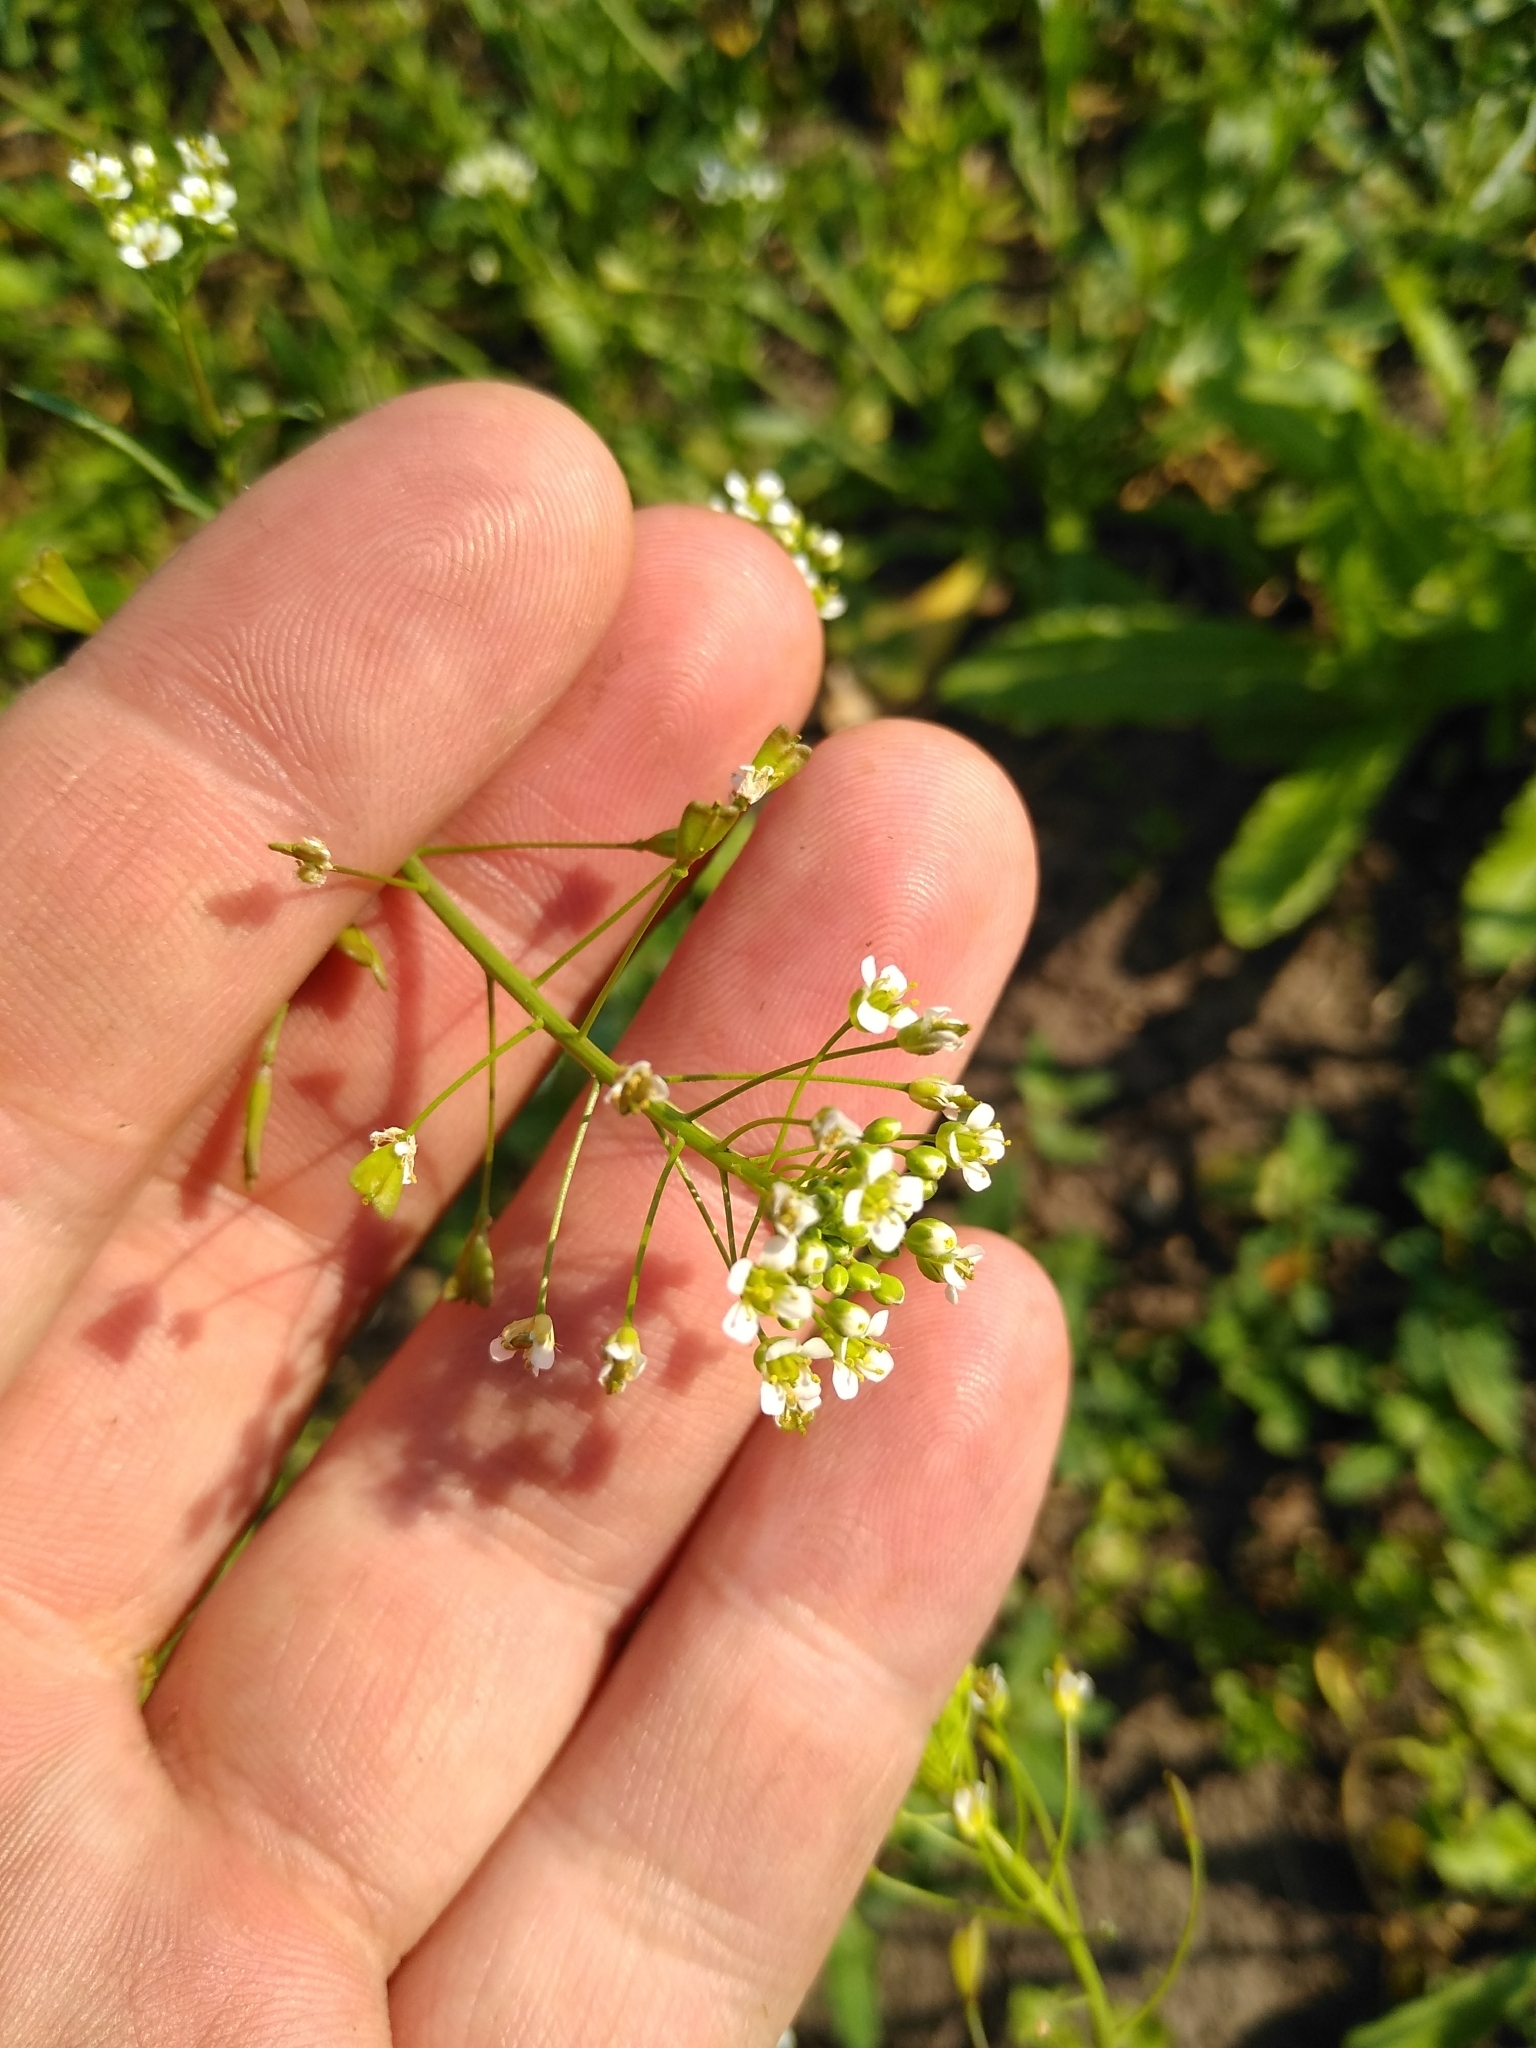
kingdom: Plantae
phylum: Tracheophyta
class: Magnoliopsida
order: Brassicales
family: Brassicaceae
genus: Capsella
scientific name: Capsella bursa-pastoris
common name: Shepherd's purse
